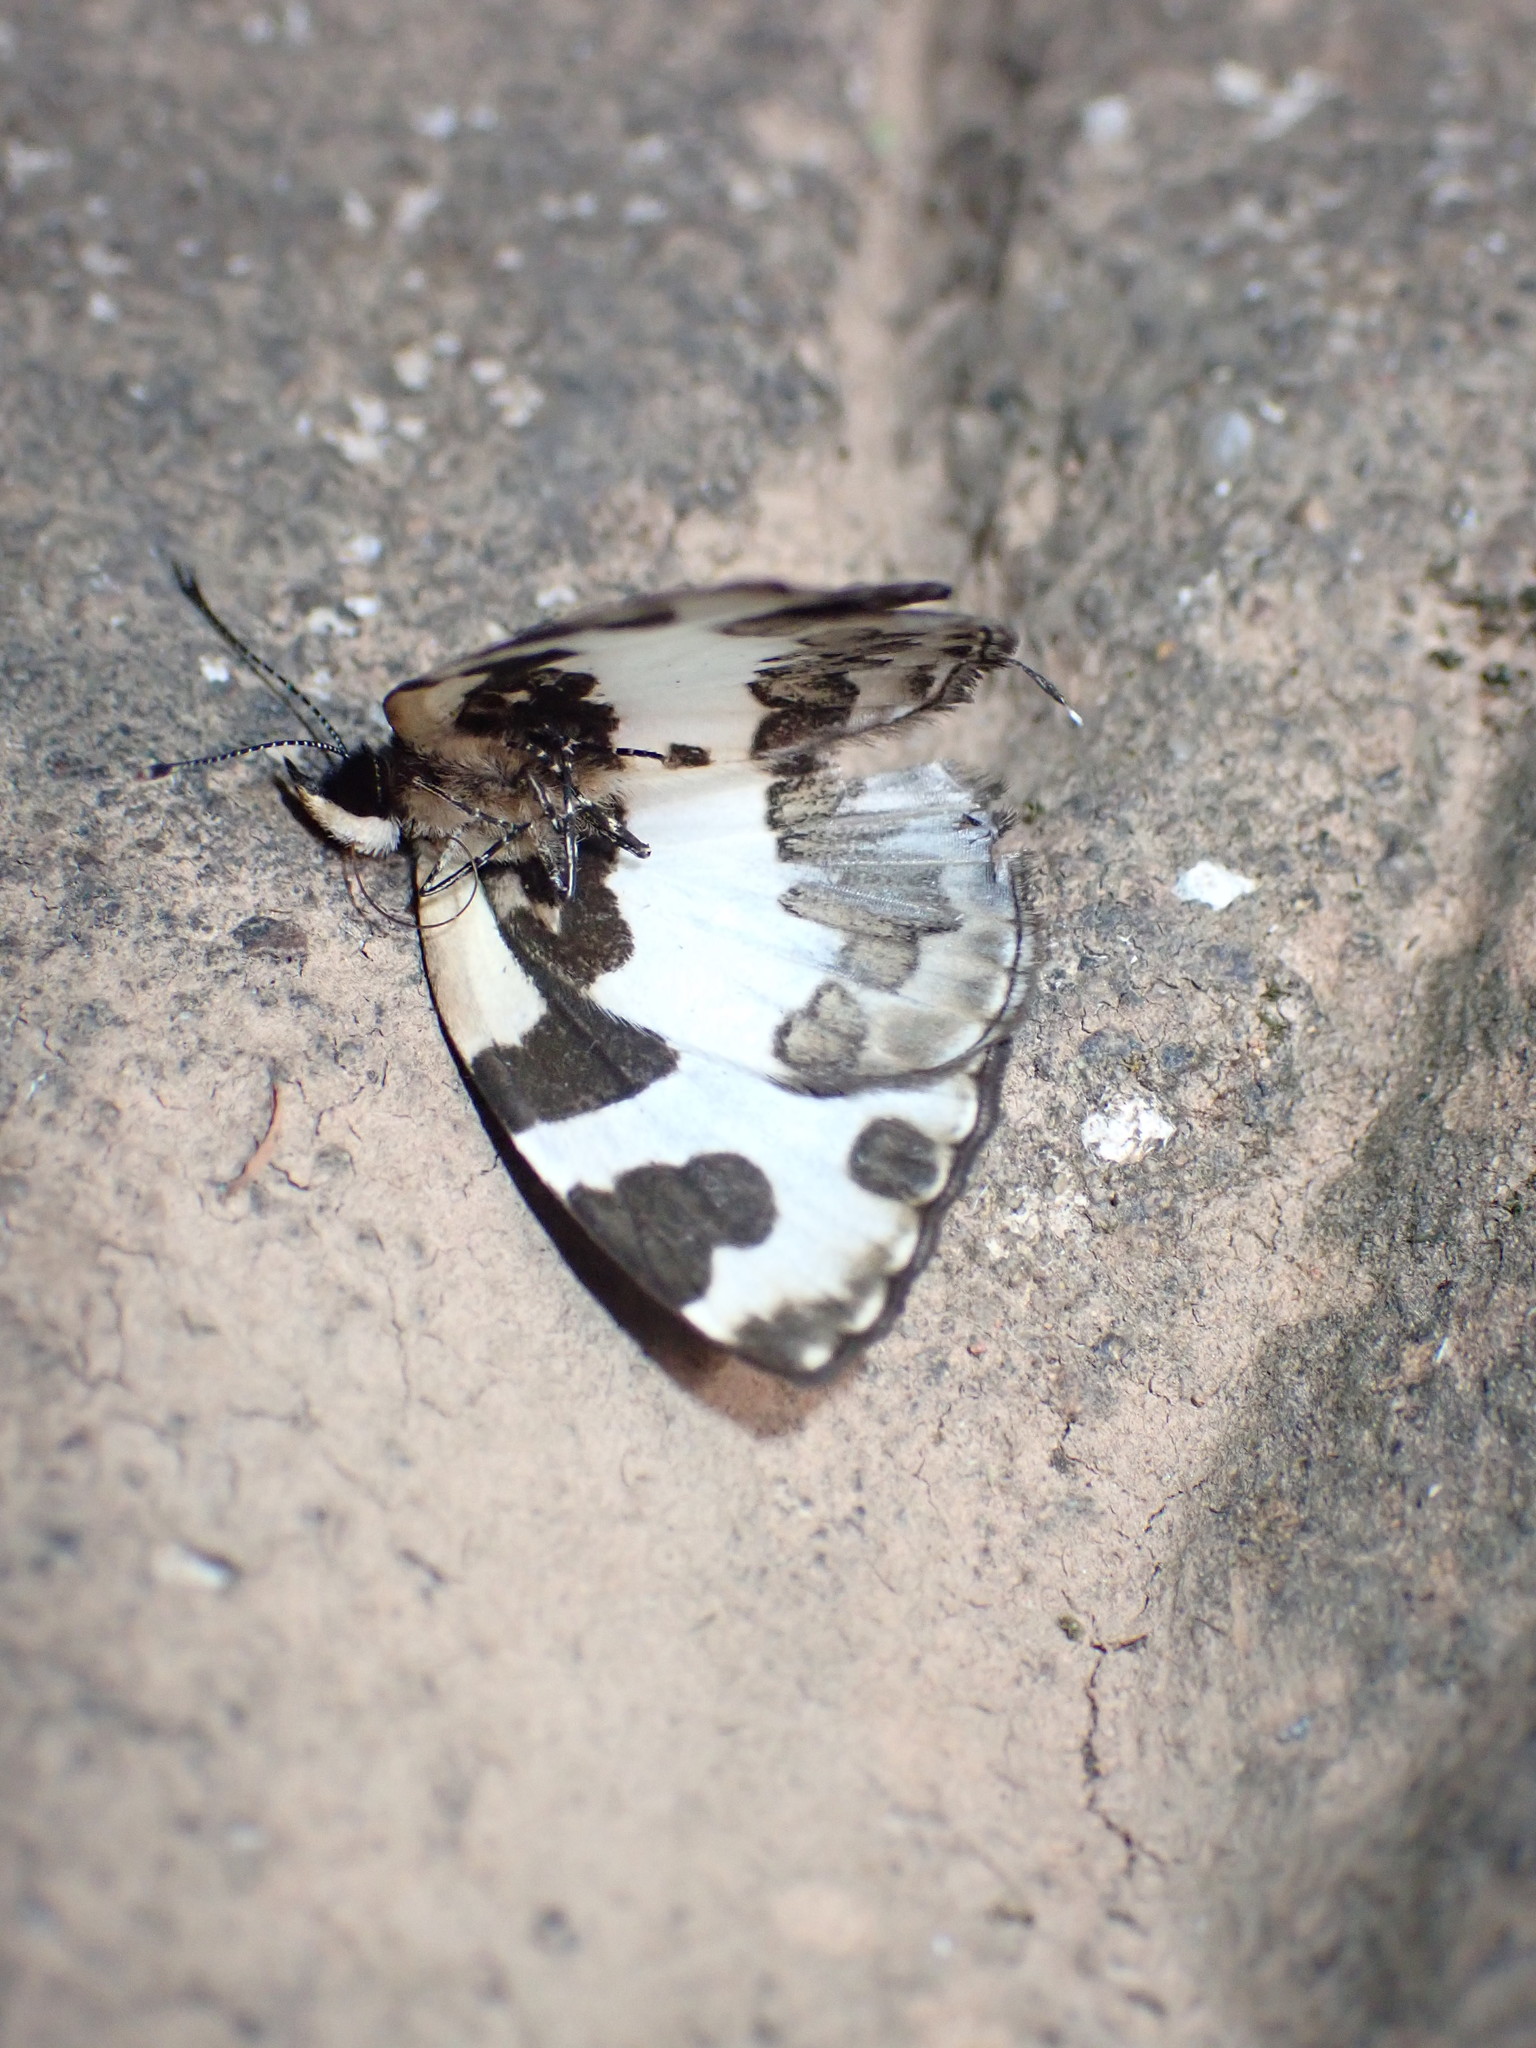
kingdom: Animalia
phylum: Arthropoda
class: Insecta
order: Lepidoptera
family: Lycaenidae
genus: Caleta
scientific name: Caleta elna
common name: Elbowed pierrot
